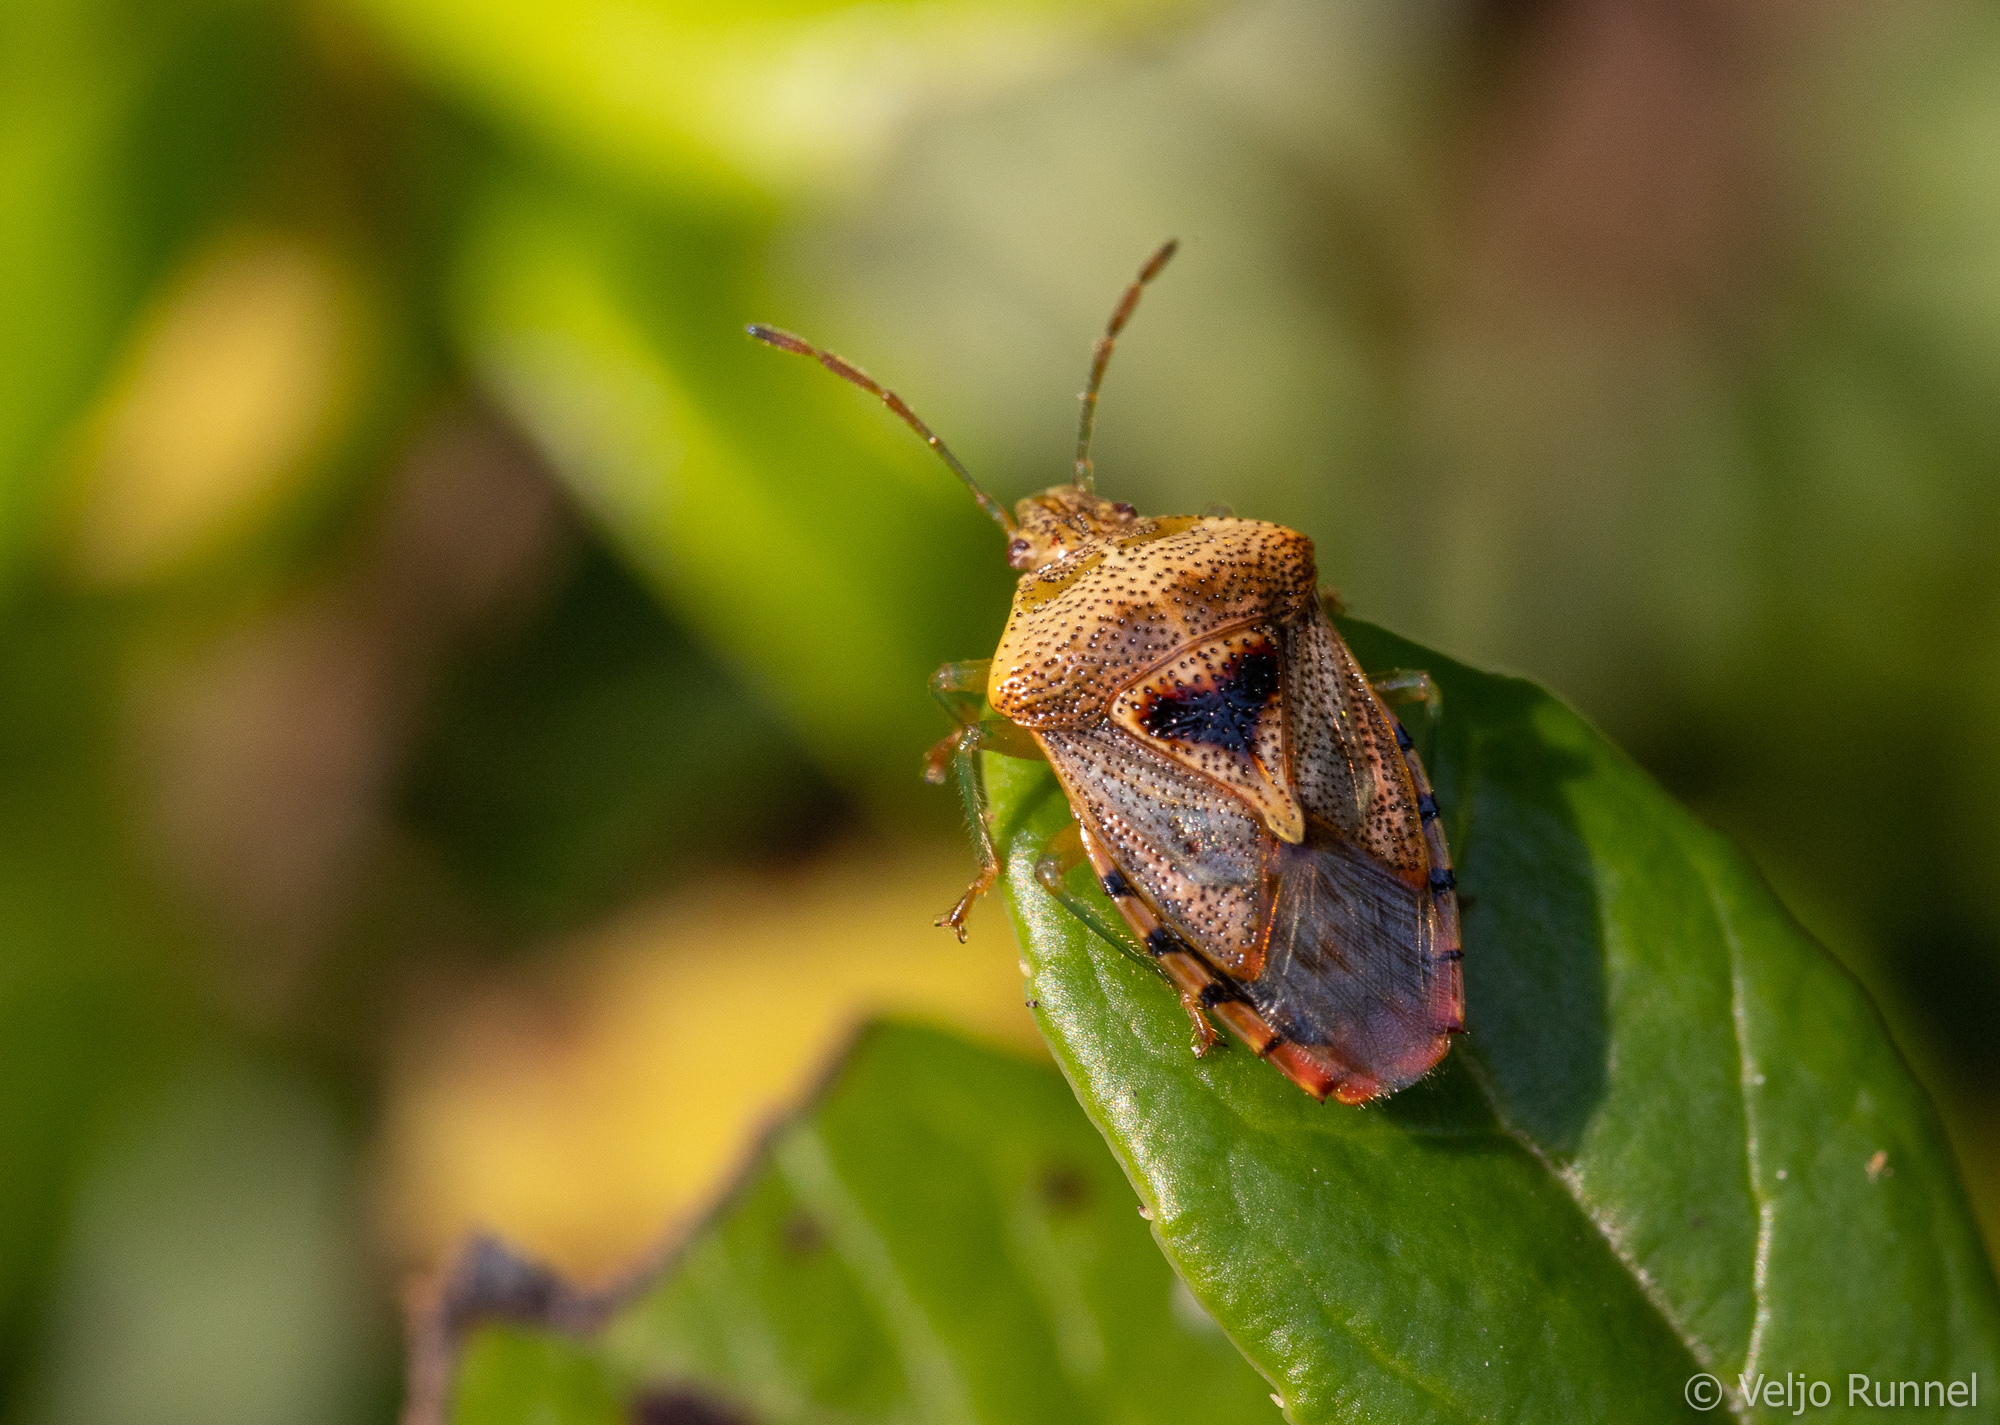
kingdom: Animalia
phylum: Arthropoda
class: Insecta
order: Hemiptera
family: Acanthosomatidae
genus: Elasmucha
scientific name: Elasmucha grisea
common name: Parent bug
